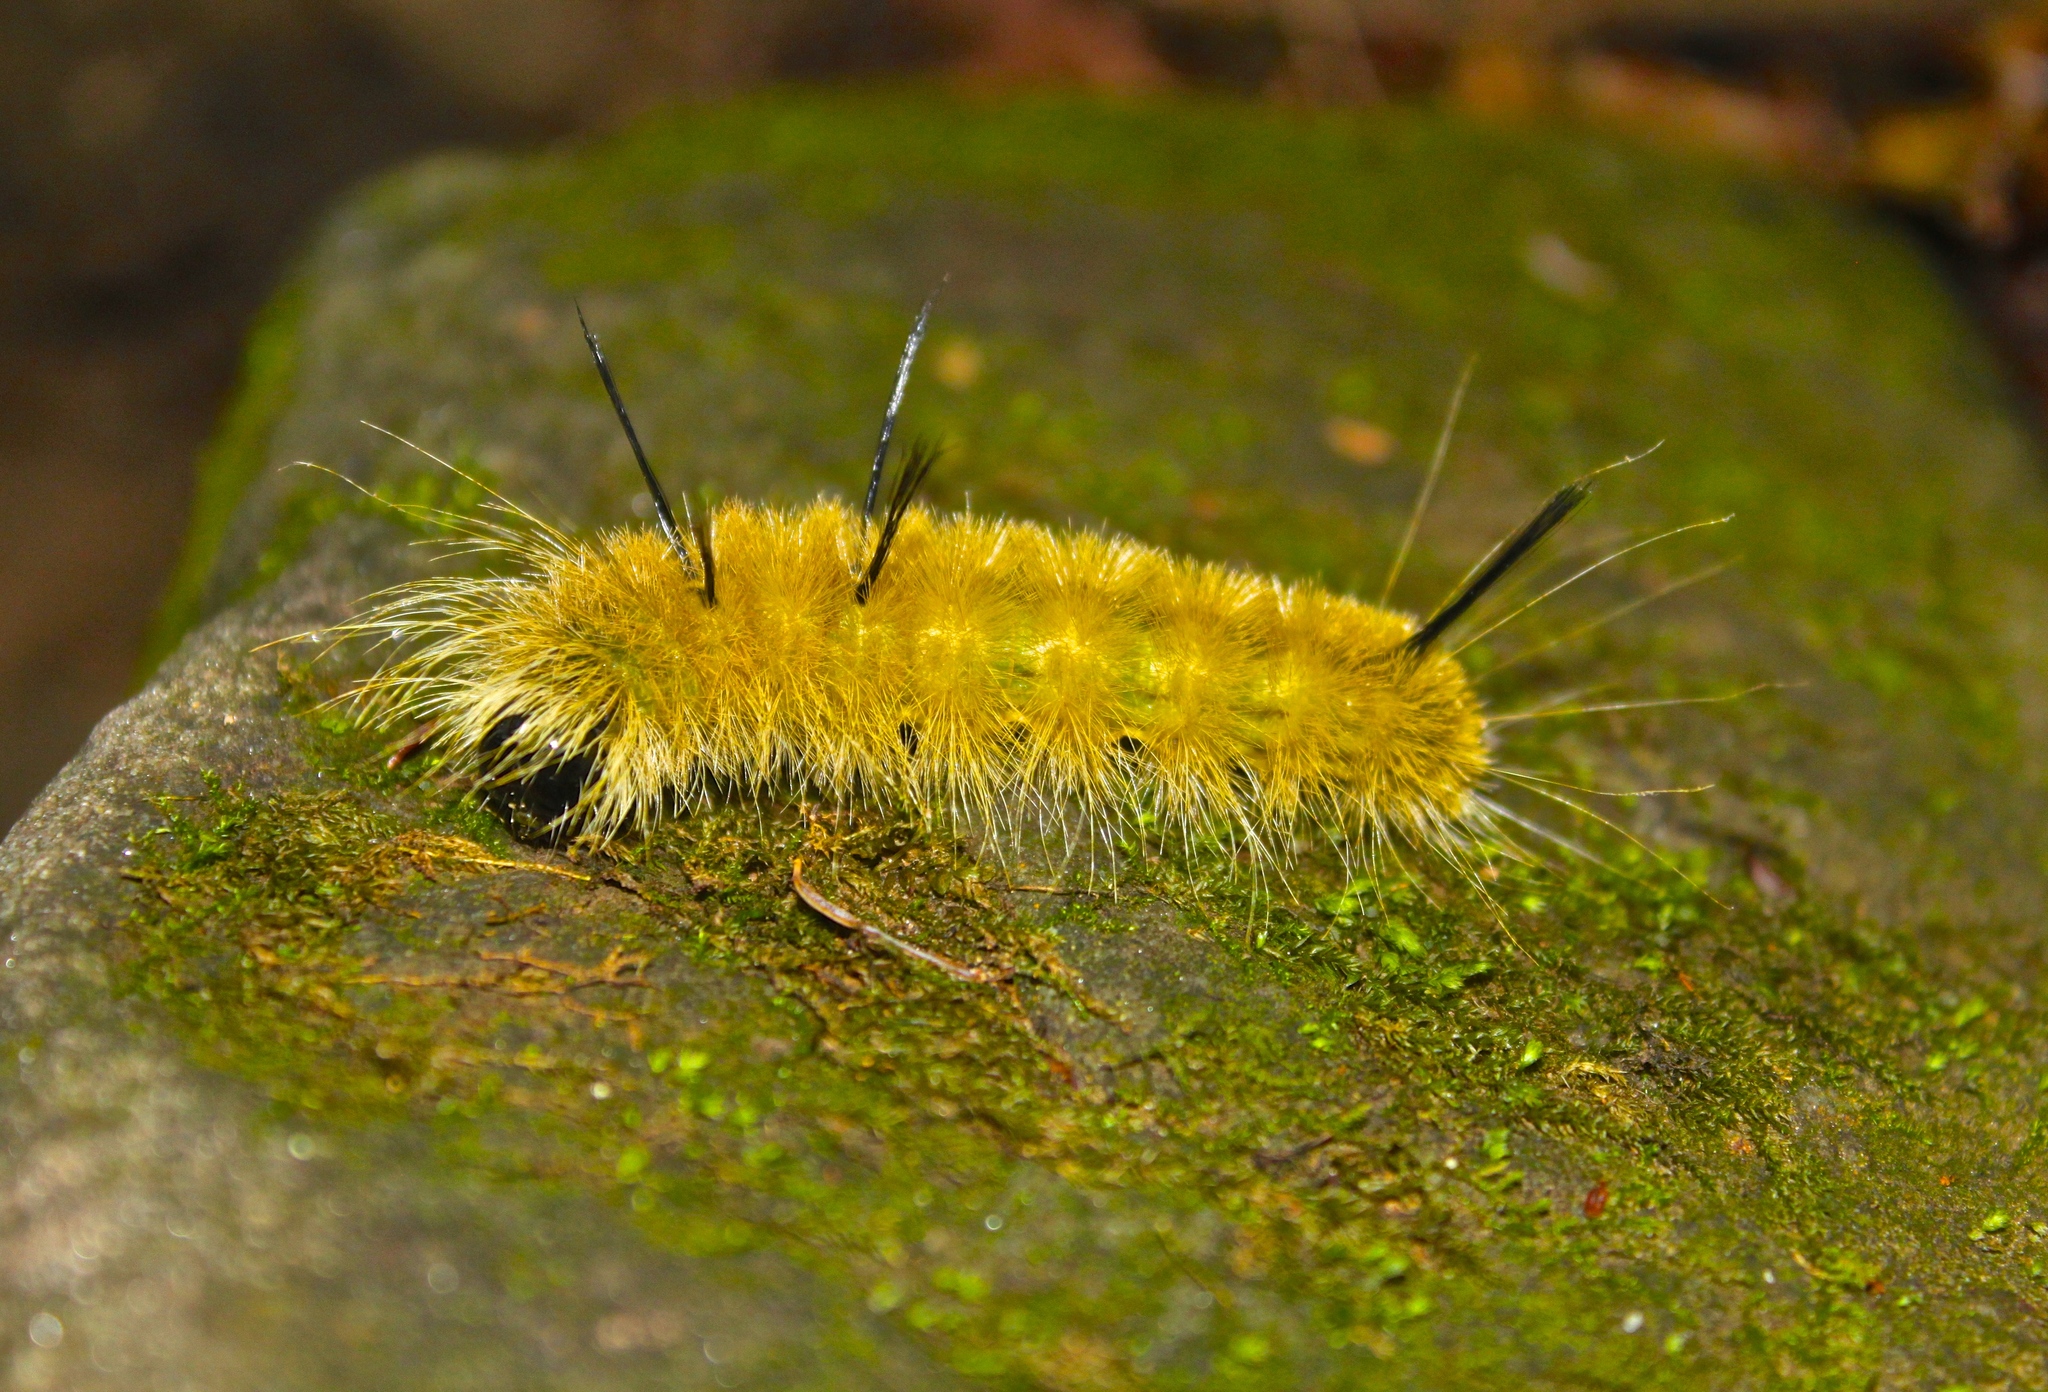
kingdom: Animalia
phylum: Arthropoda
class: Insecta
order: Lepidoptera
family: Noctuidae
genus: Acronicta
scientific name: Acronicta americana
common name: American dagger
